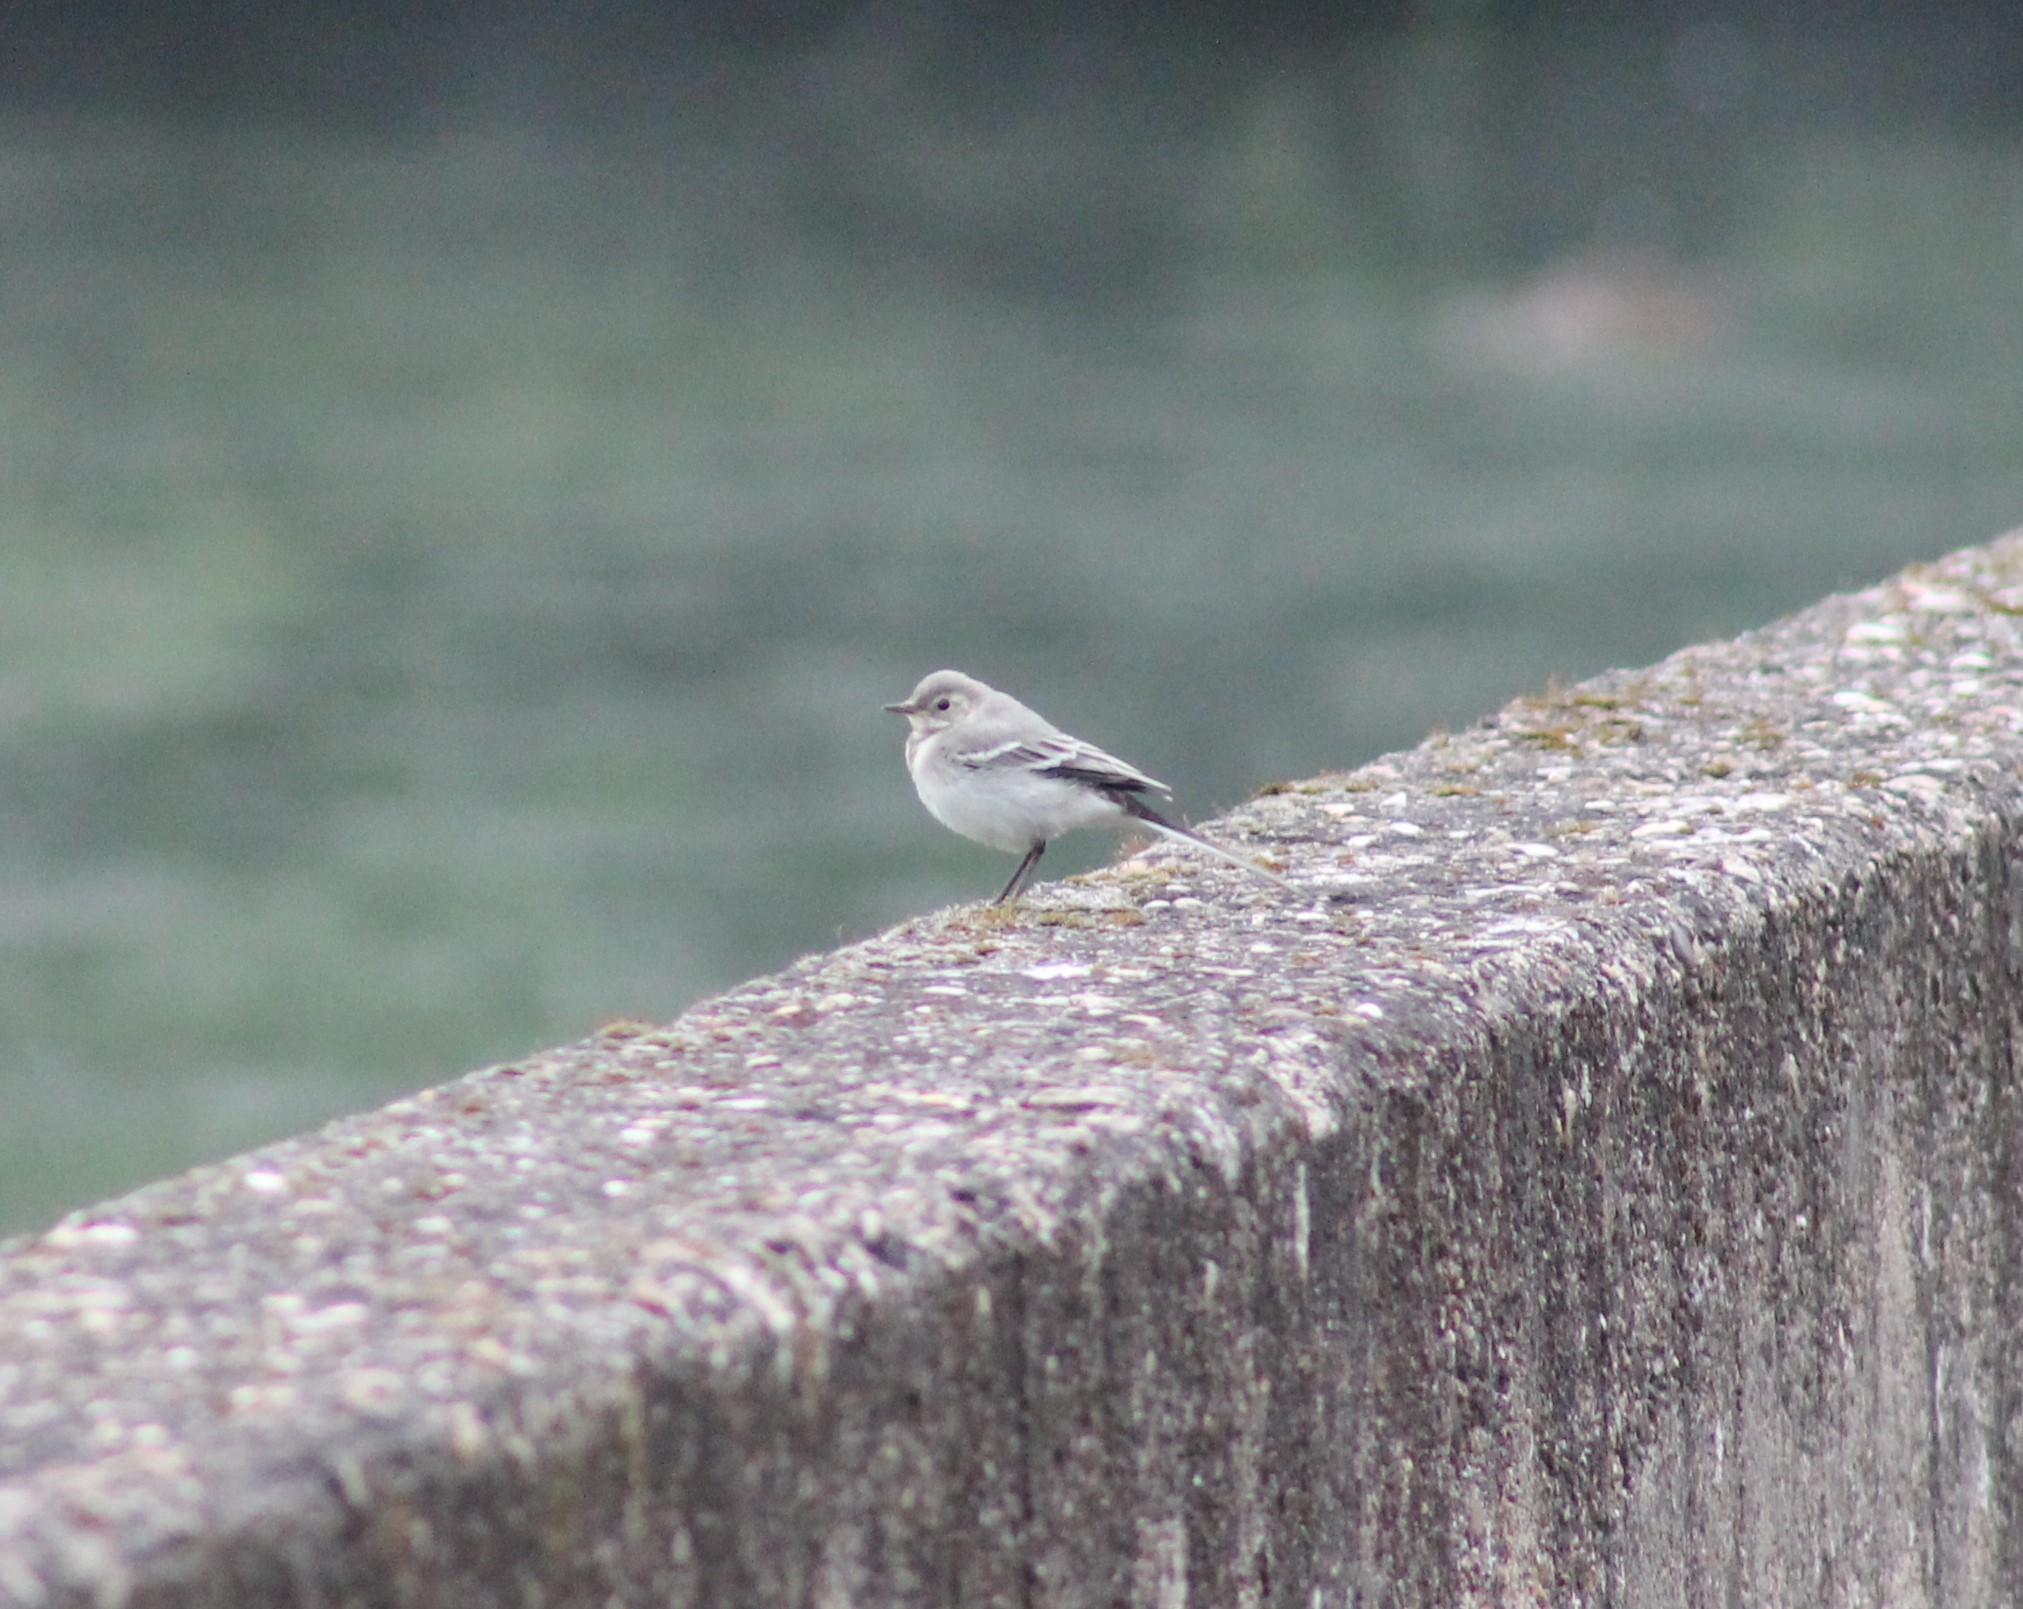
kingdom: Animalia
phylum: Chordata
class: Aves
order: Passeriformes
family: Motacillidae
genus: Motacilla
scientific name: Motacilla alba
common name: White wagtail
